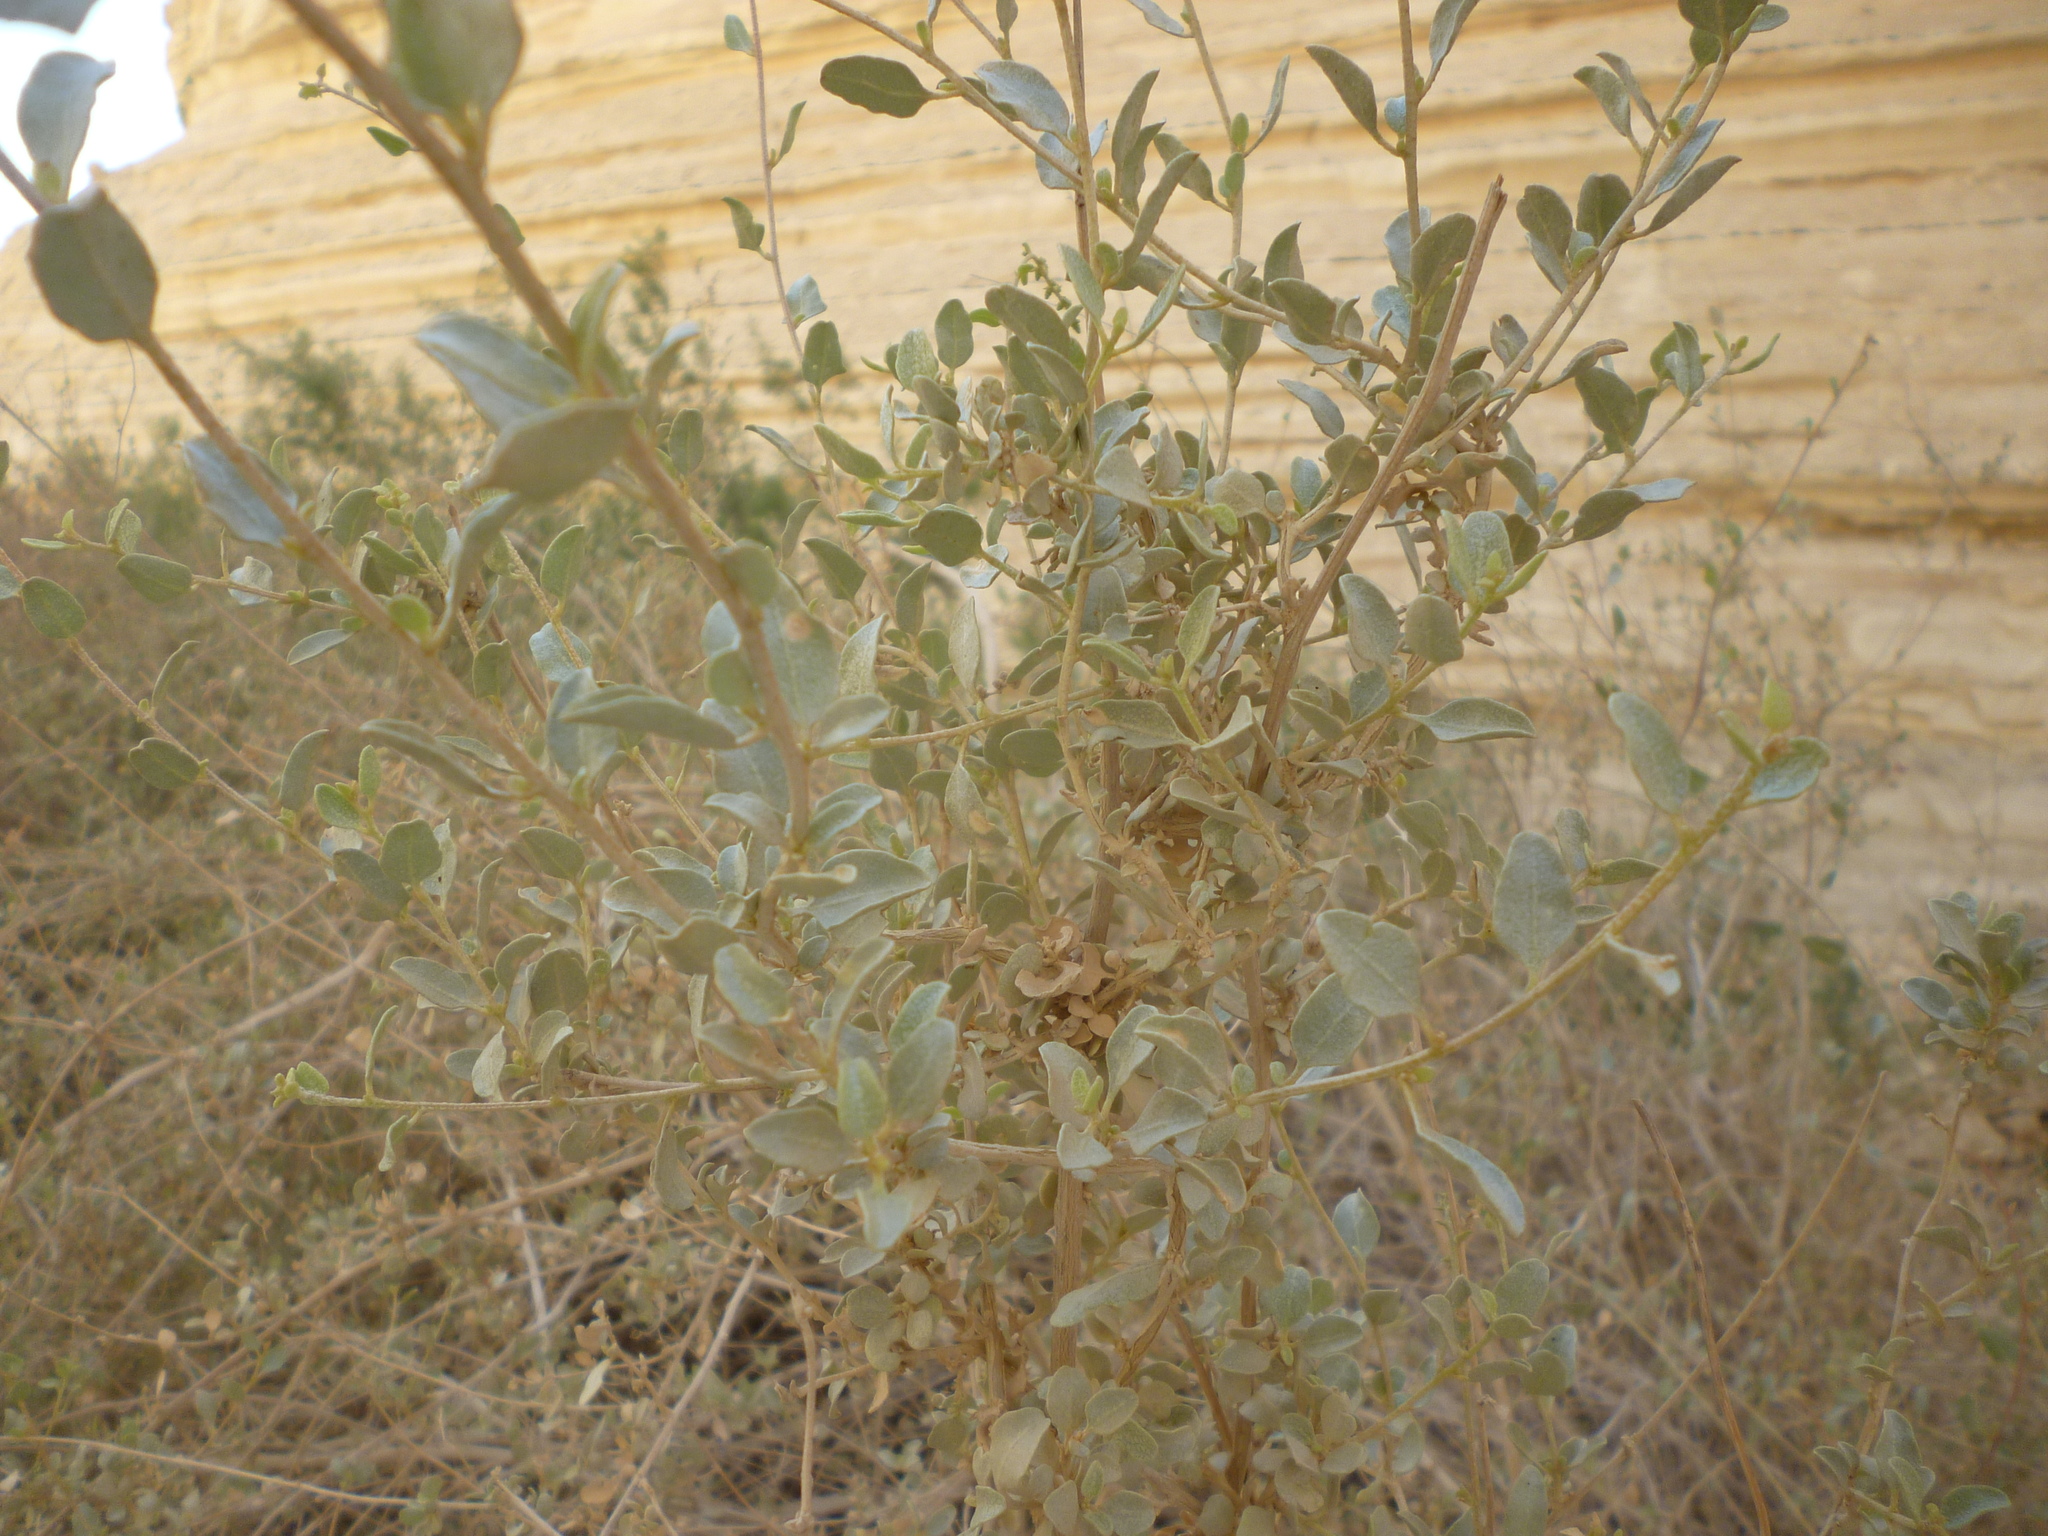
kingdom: Plantae
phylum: Tracheophyta
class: Magnoliopsida
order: Caryophyllales
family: Amaranthaceae
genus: Atriplex
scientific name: Atriplex halimus
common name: Shrubby orache
